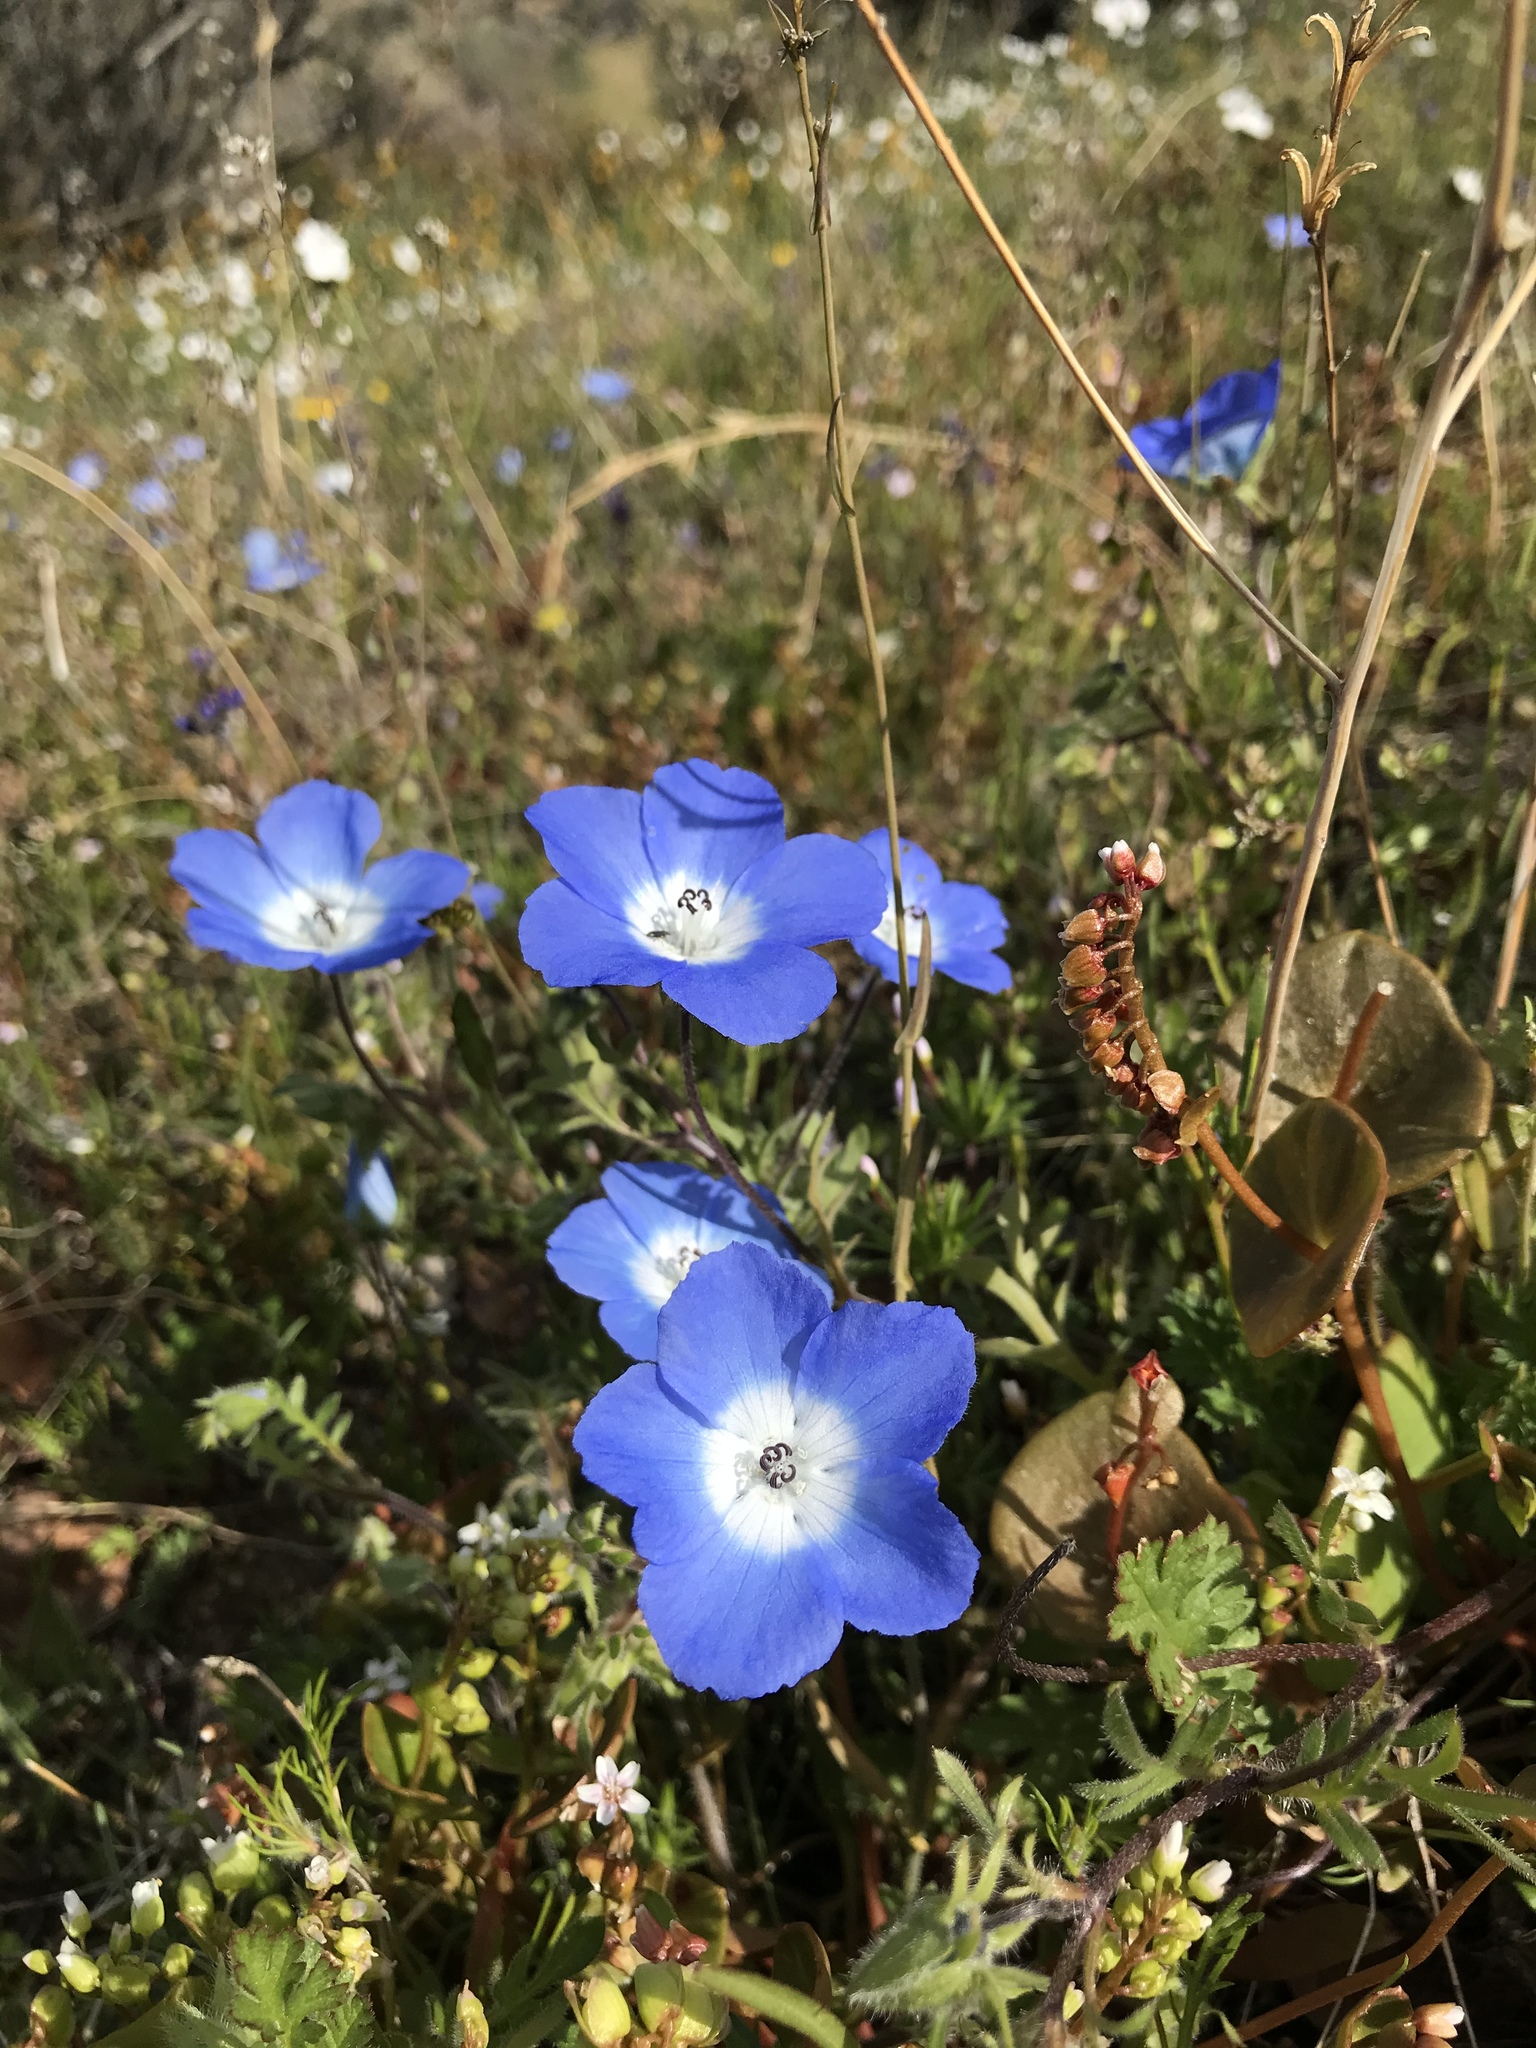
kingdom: Plantae
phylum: Tracheophyta
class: Magnoliopsida
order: Boraginales
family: Hydrophyllaceae
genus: Nemophila
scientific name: Nemophila menziesii
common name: Baby's-blue-eyes
